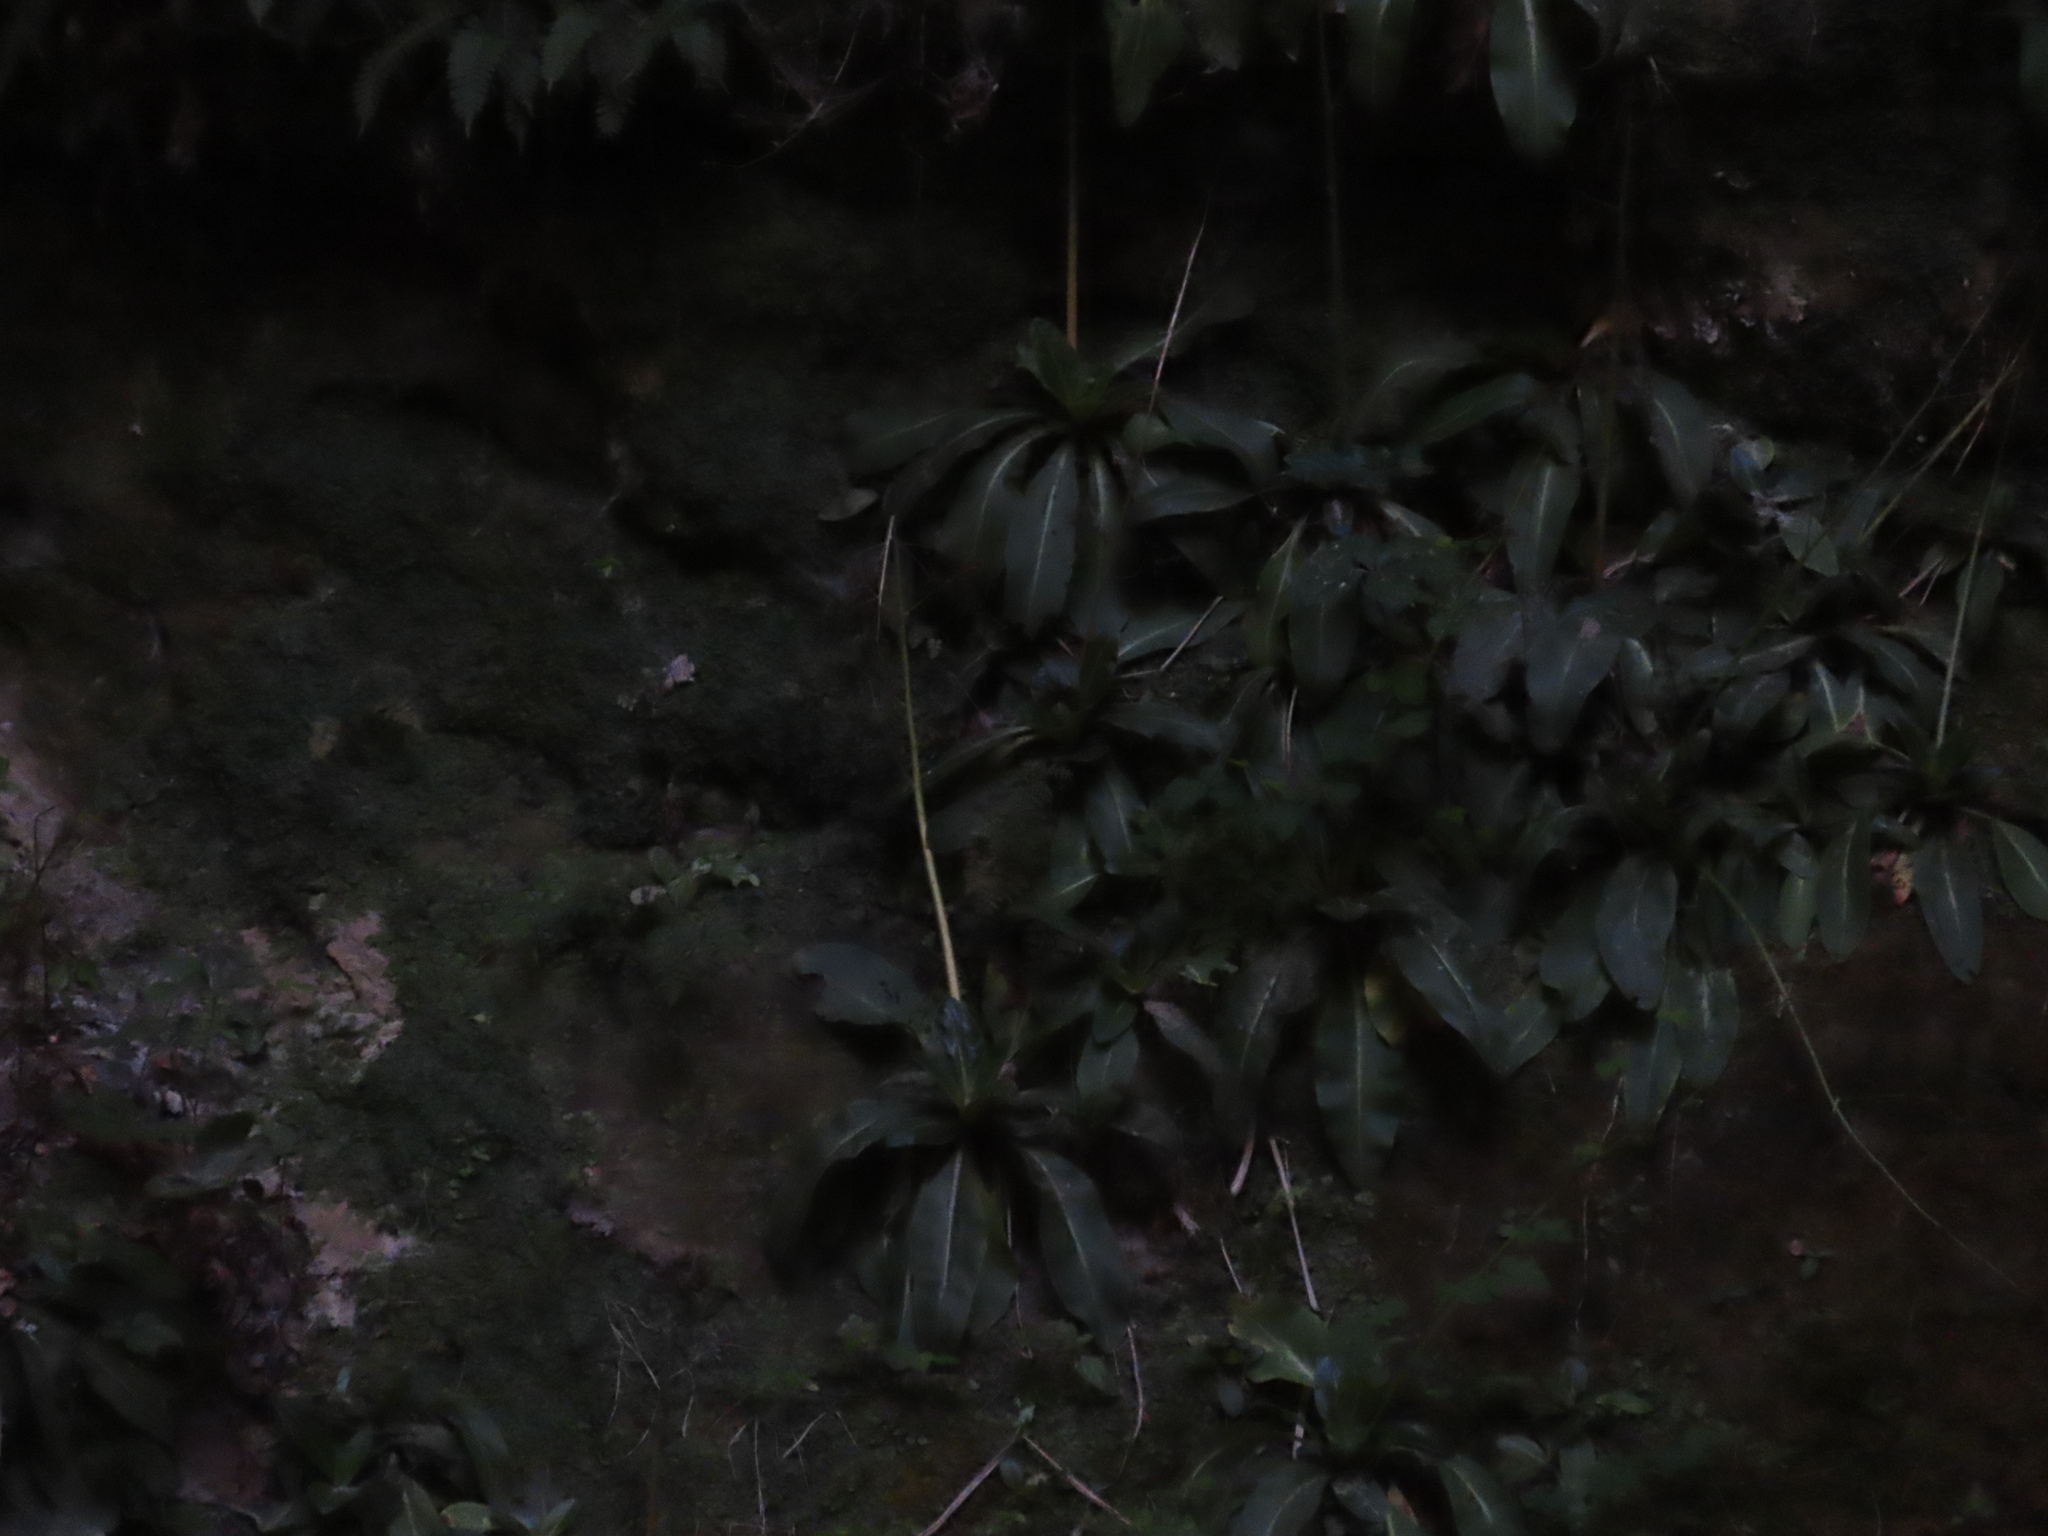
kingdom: Plantae
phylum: Tracheophyta
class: Magnoliopsida
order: Saxifragales
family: Saxifragaceae
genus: Micranthes
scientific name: Micranthes pensylvanica
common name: Marsh saxifrage
